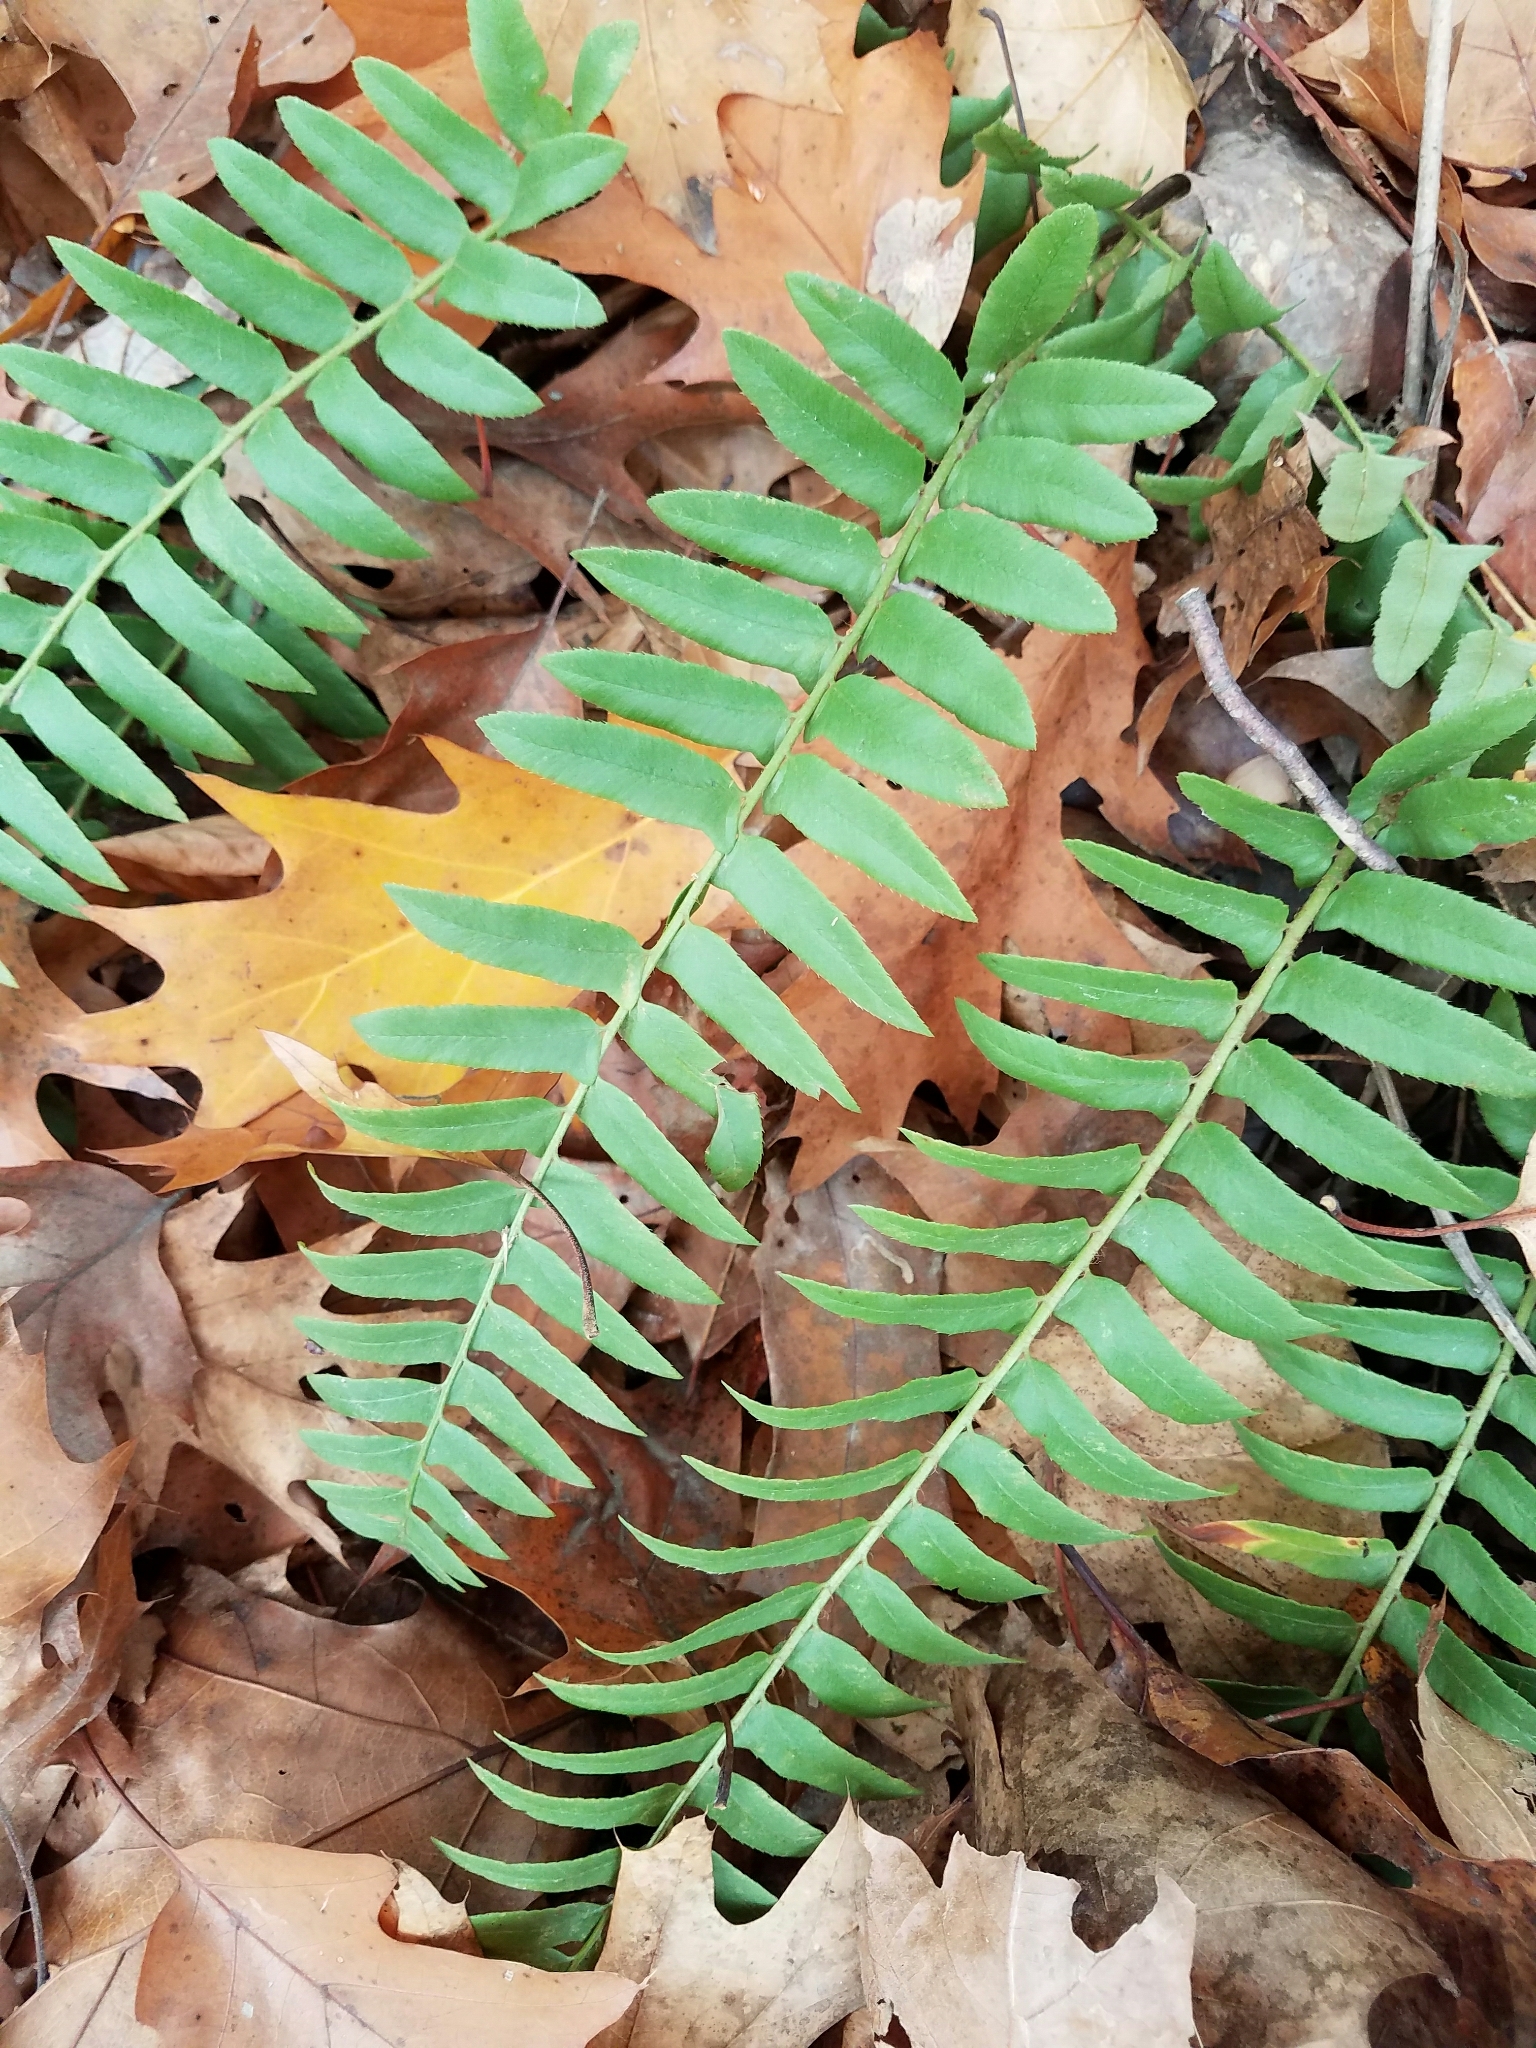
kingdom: Plantae
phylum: Tracheophyta
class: Polypodiopsida
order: Polypodiales
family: Dryopteridaceae
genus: Polystichum
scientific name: Polystichum acrostichoides
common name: Christmas fern
